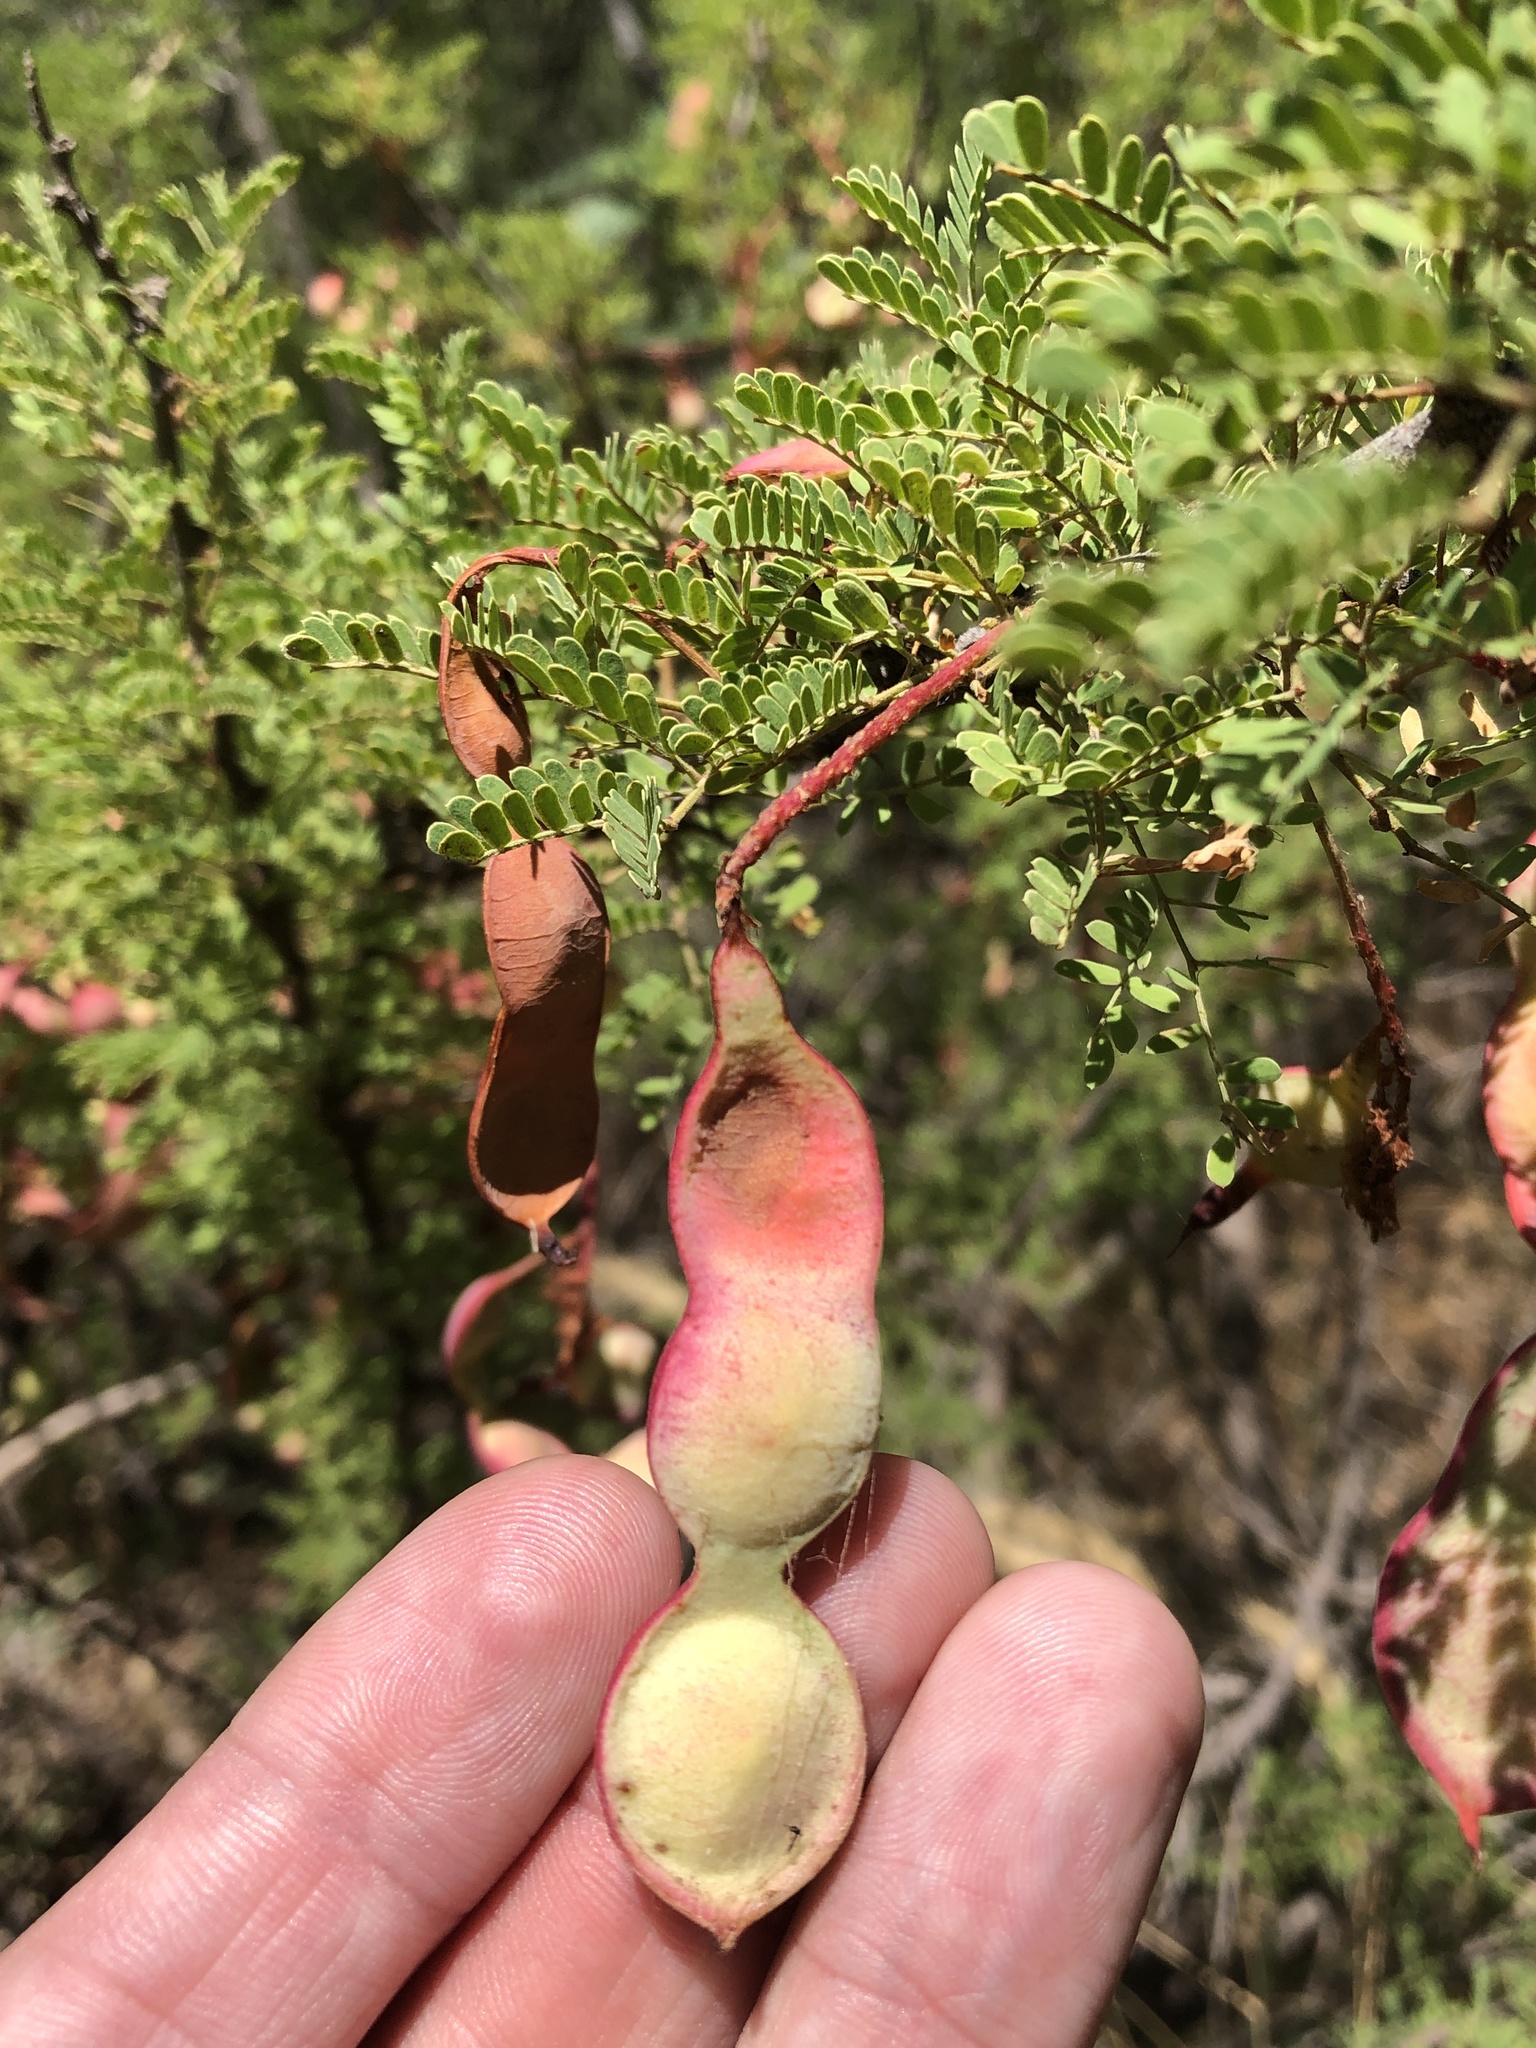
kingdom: Plantae
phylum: Tracheophyta
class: Magnoliopsida
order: Fabales
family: Fabaceae
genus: Senegalia
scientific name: Senegalia greggii
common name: Texas-mimosa
